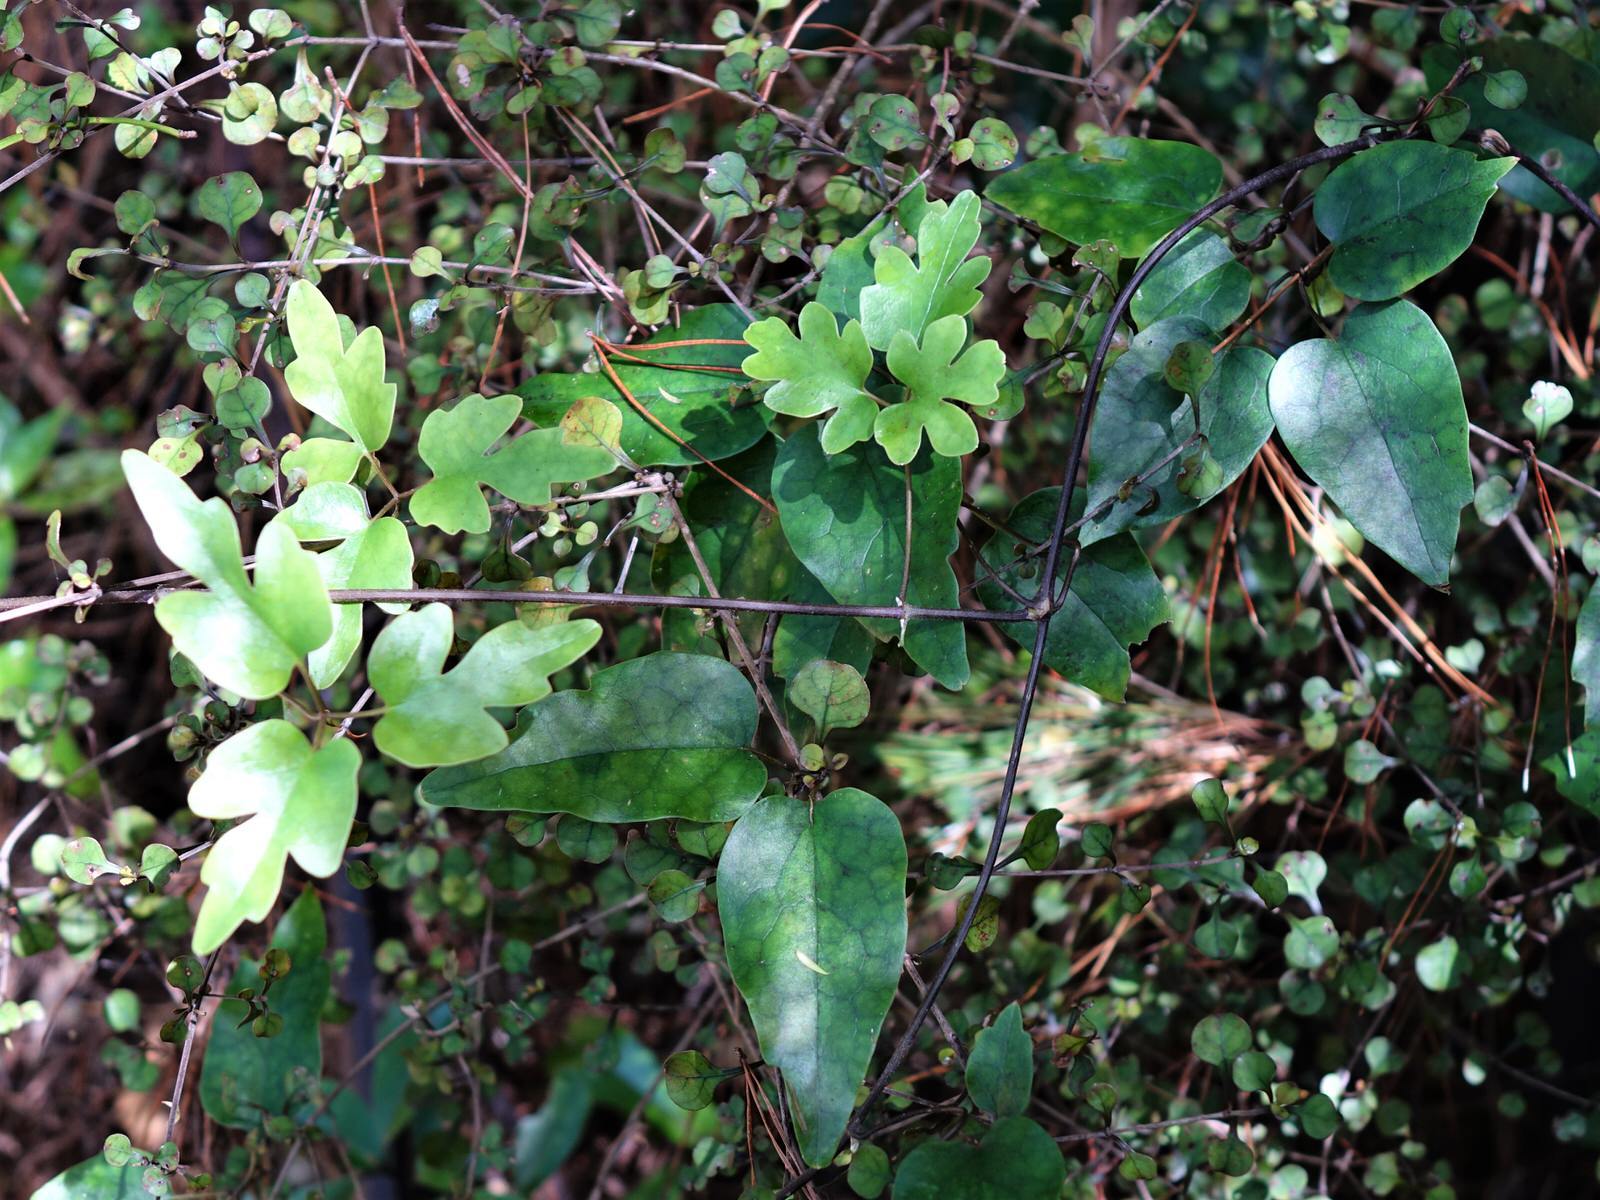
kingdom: Plantae
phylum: Tracheophyta
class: Magnoliopsida
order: Ranunculales
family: Ranunculaceae
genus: Clematis
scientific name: Clematis paniculata
